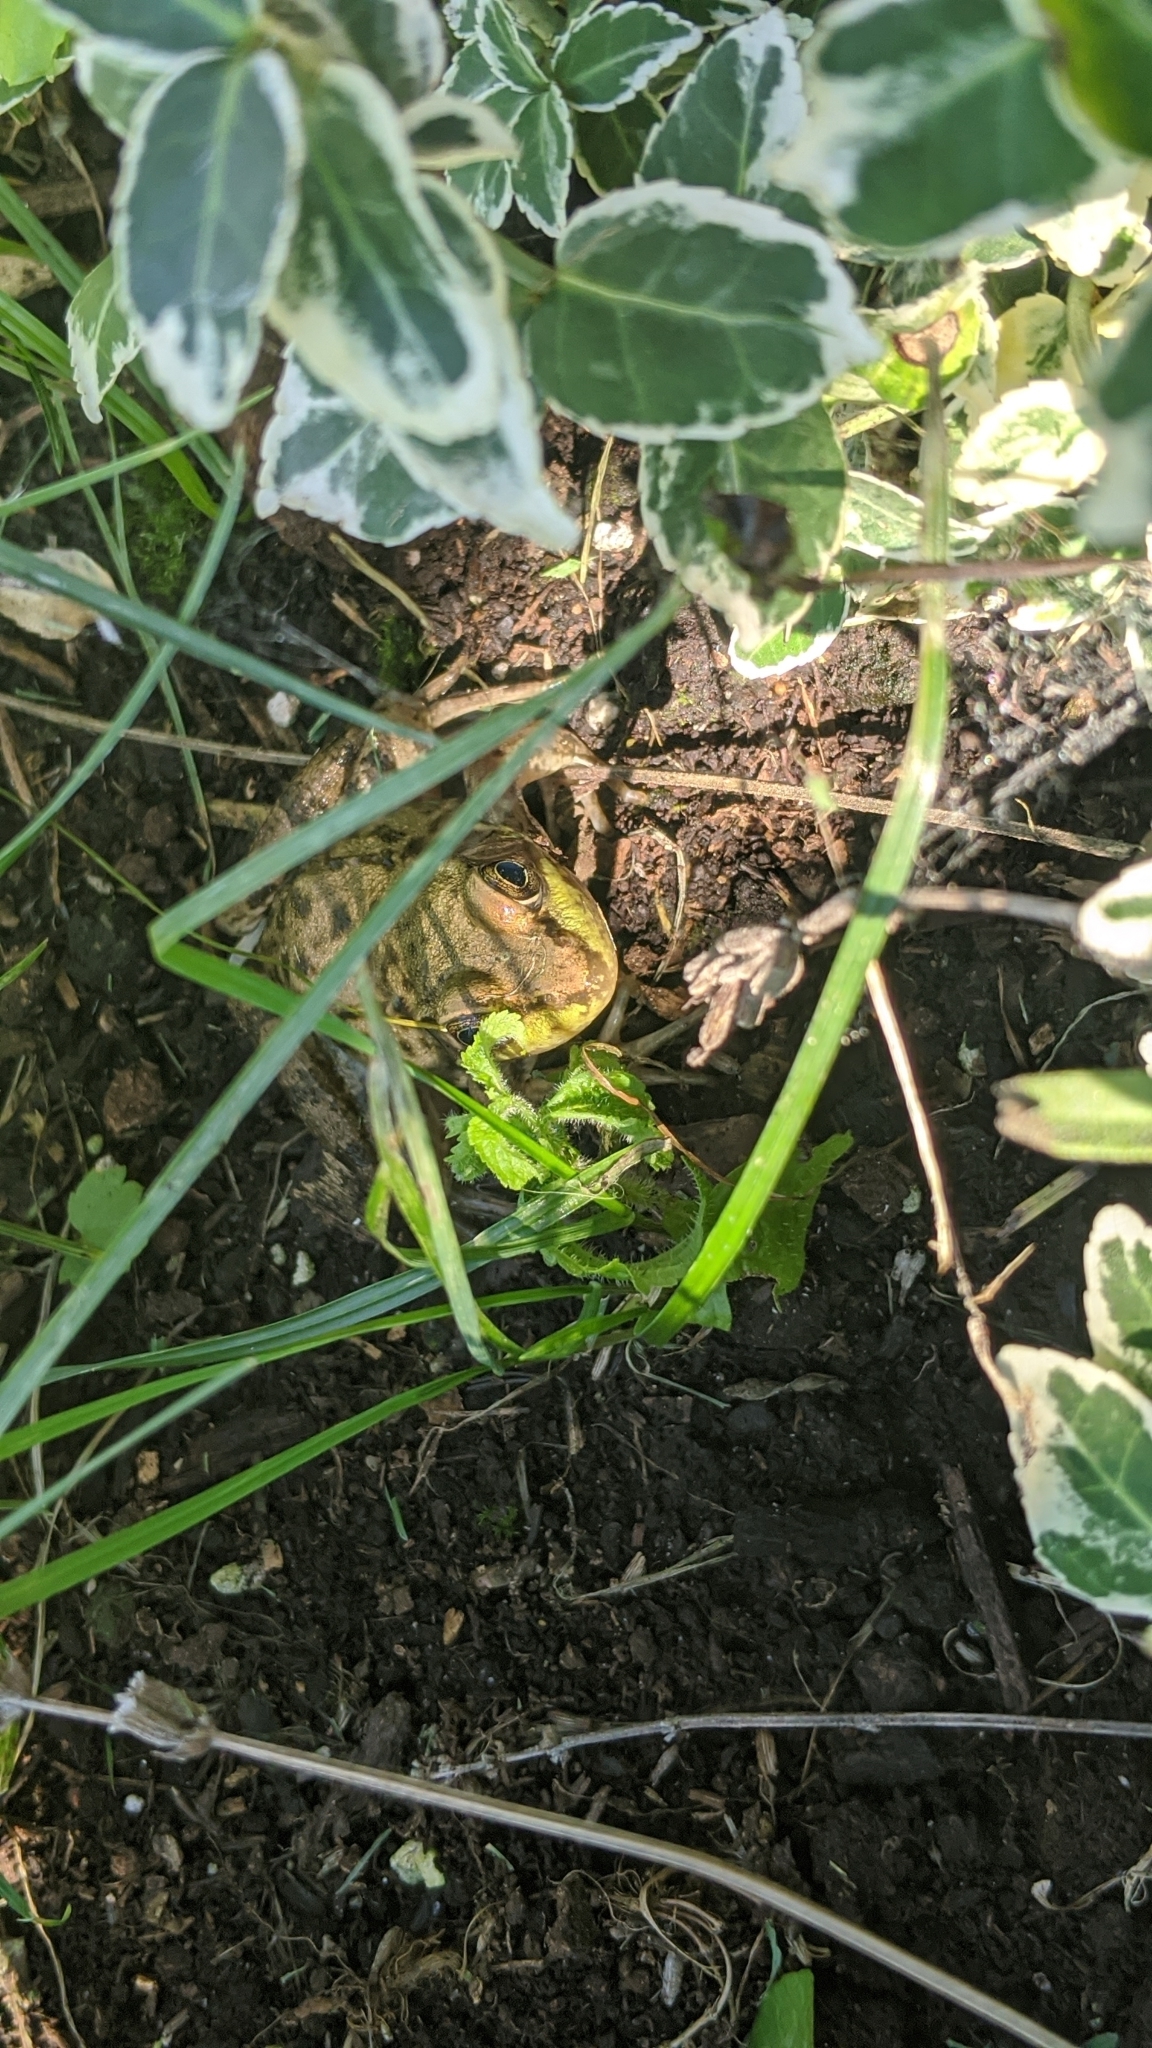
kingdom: Animalia
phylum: Chordata
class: Amphibia
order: Anura
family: Ranidae
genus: Lithobates
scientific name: Lithobates clamitans
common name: Green frog
